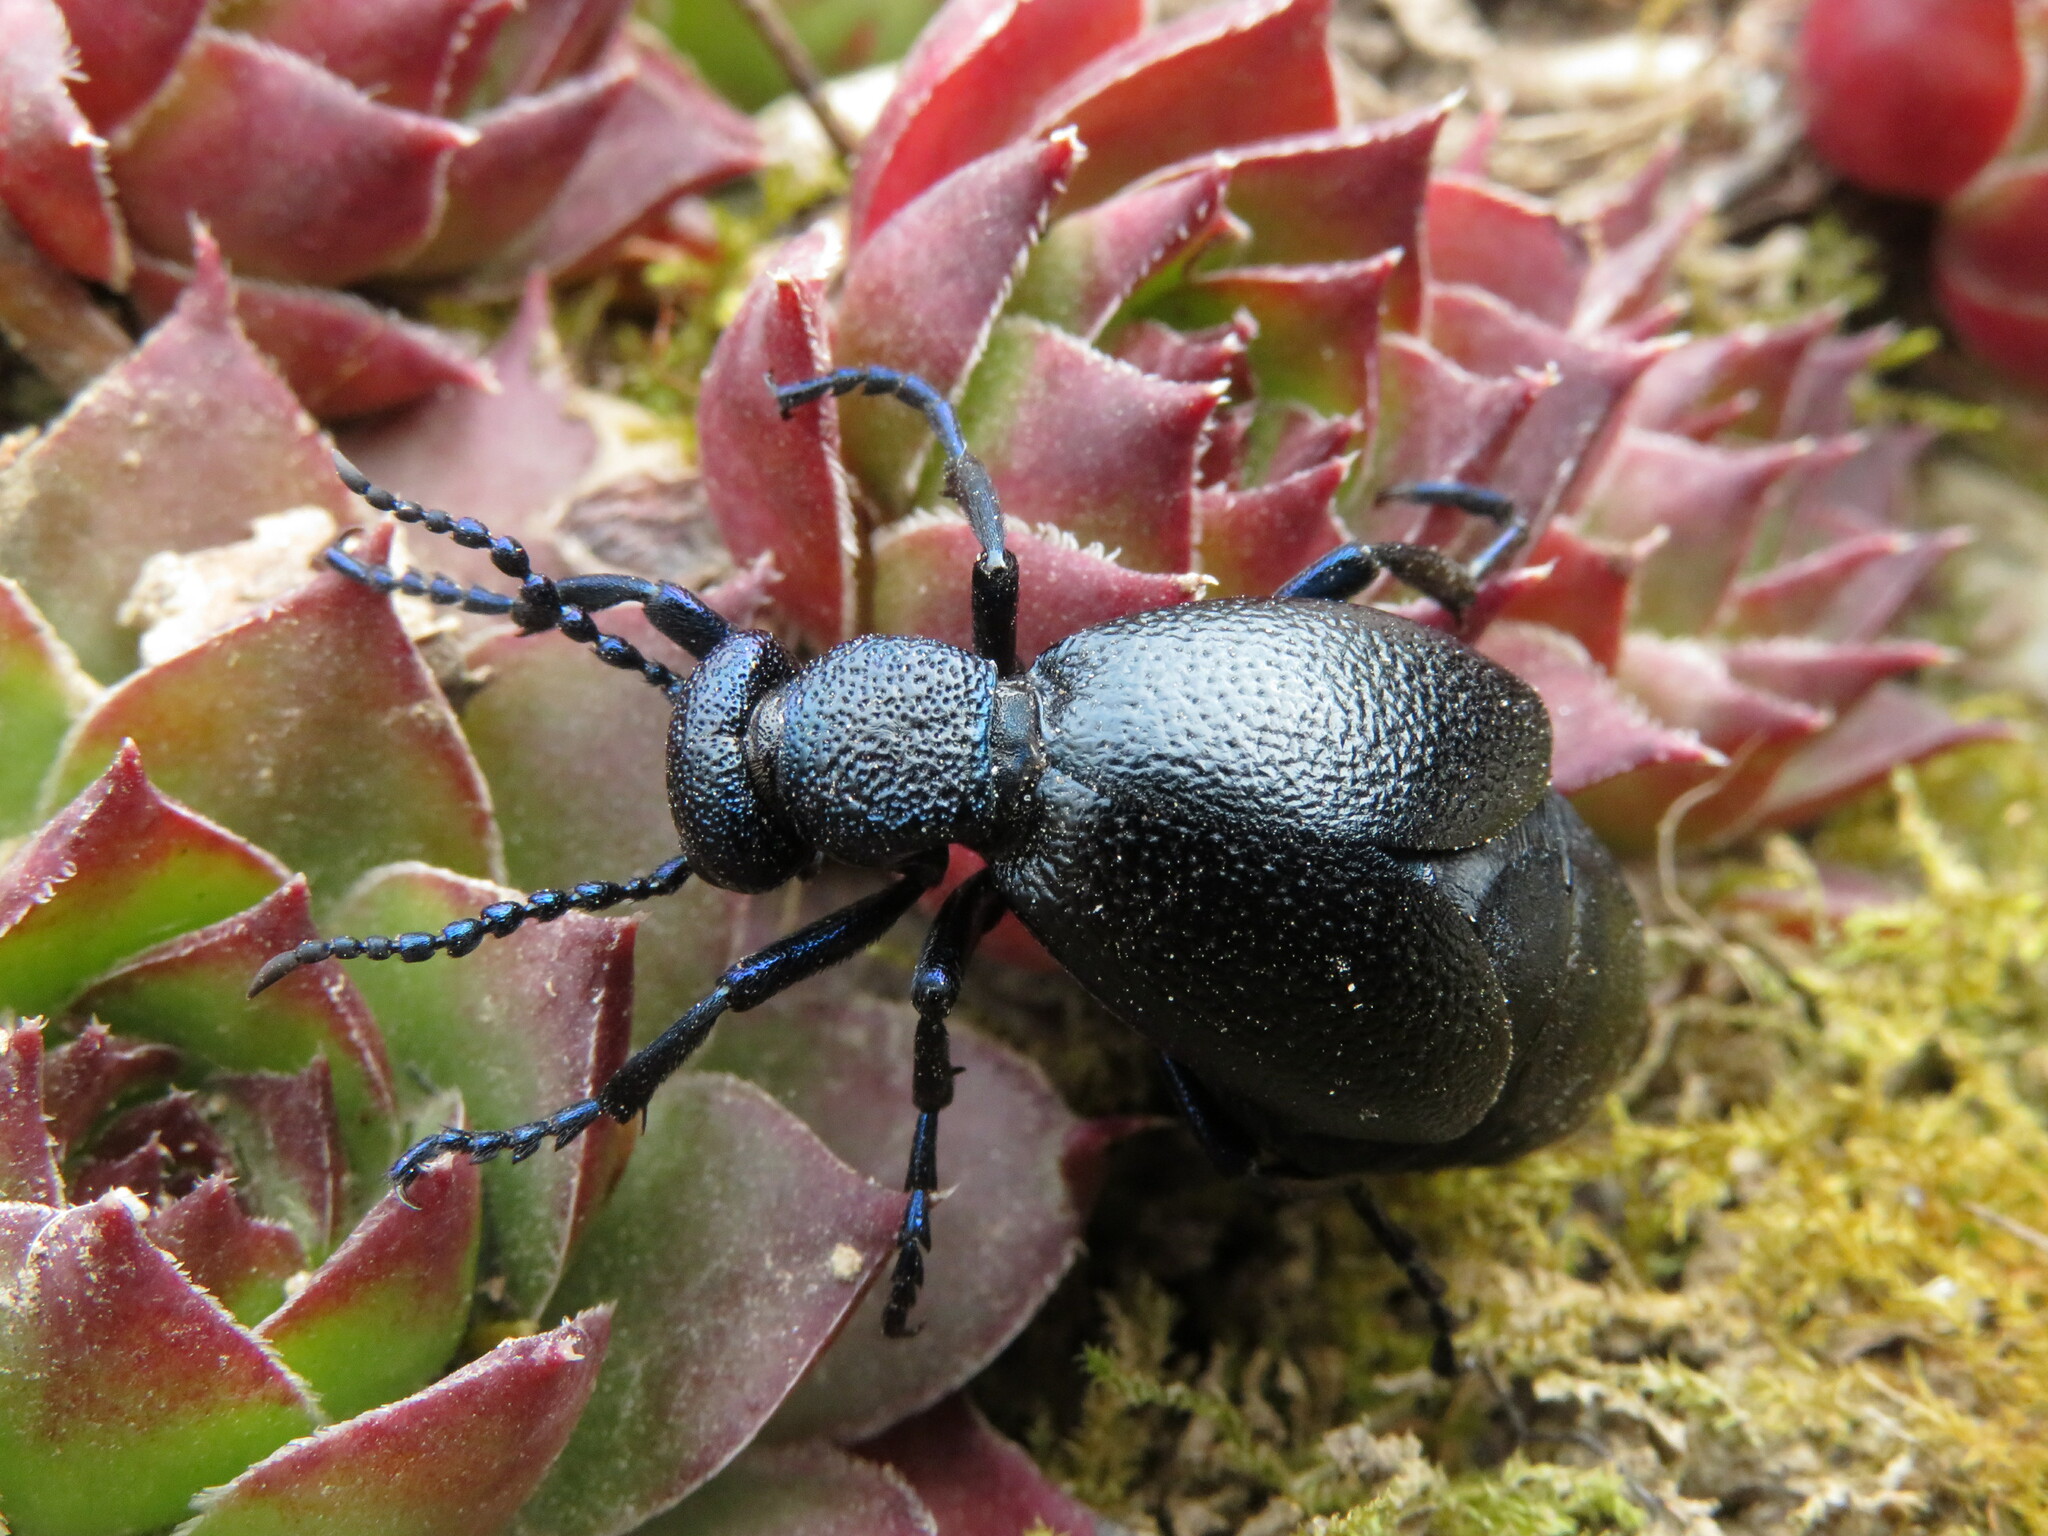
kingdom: Animalia
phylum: Arthropoda
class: Insecta
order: Coleoptera
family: Meloidae
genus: Meloe
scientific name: Meloe proscarabaeus
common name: Black oil-beetle
